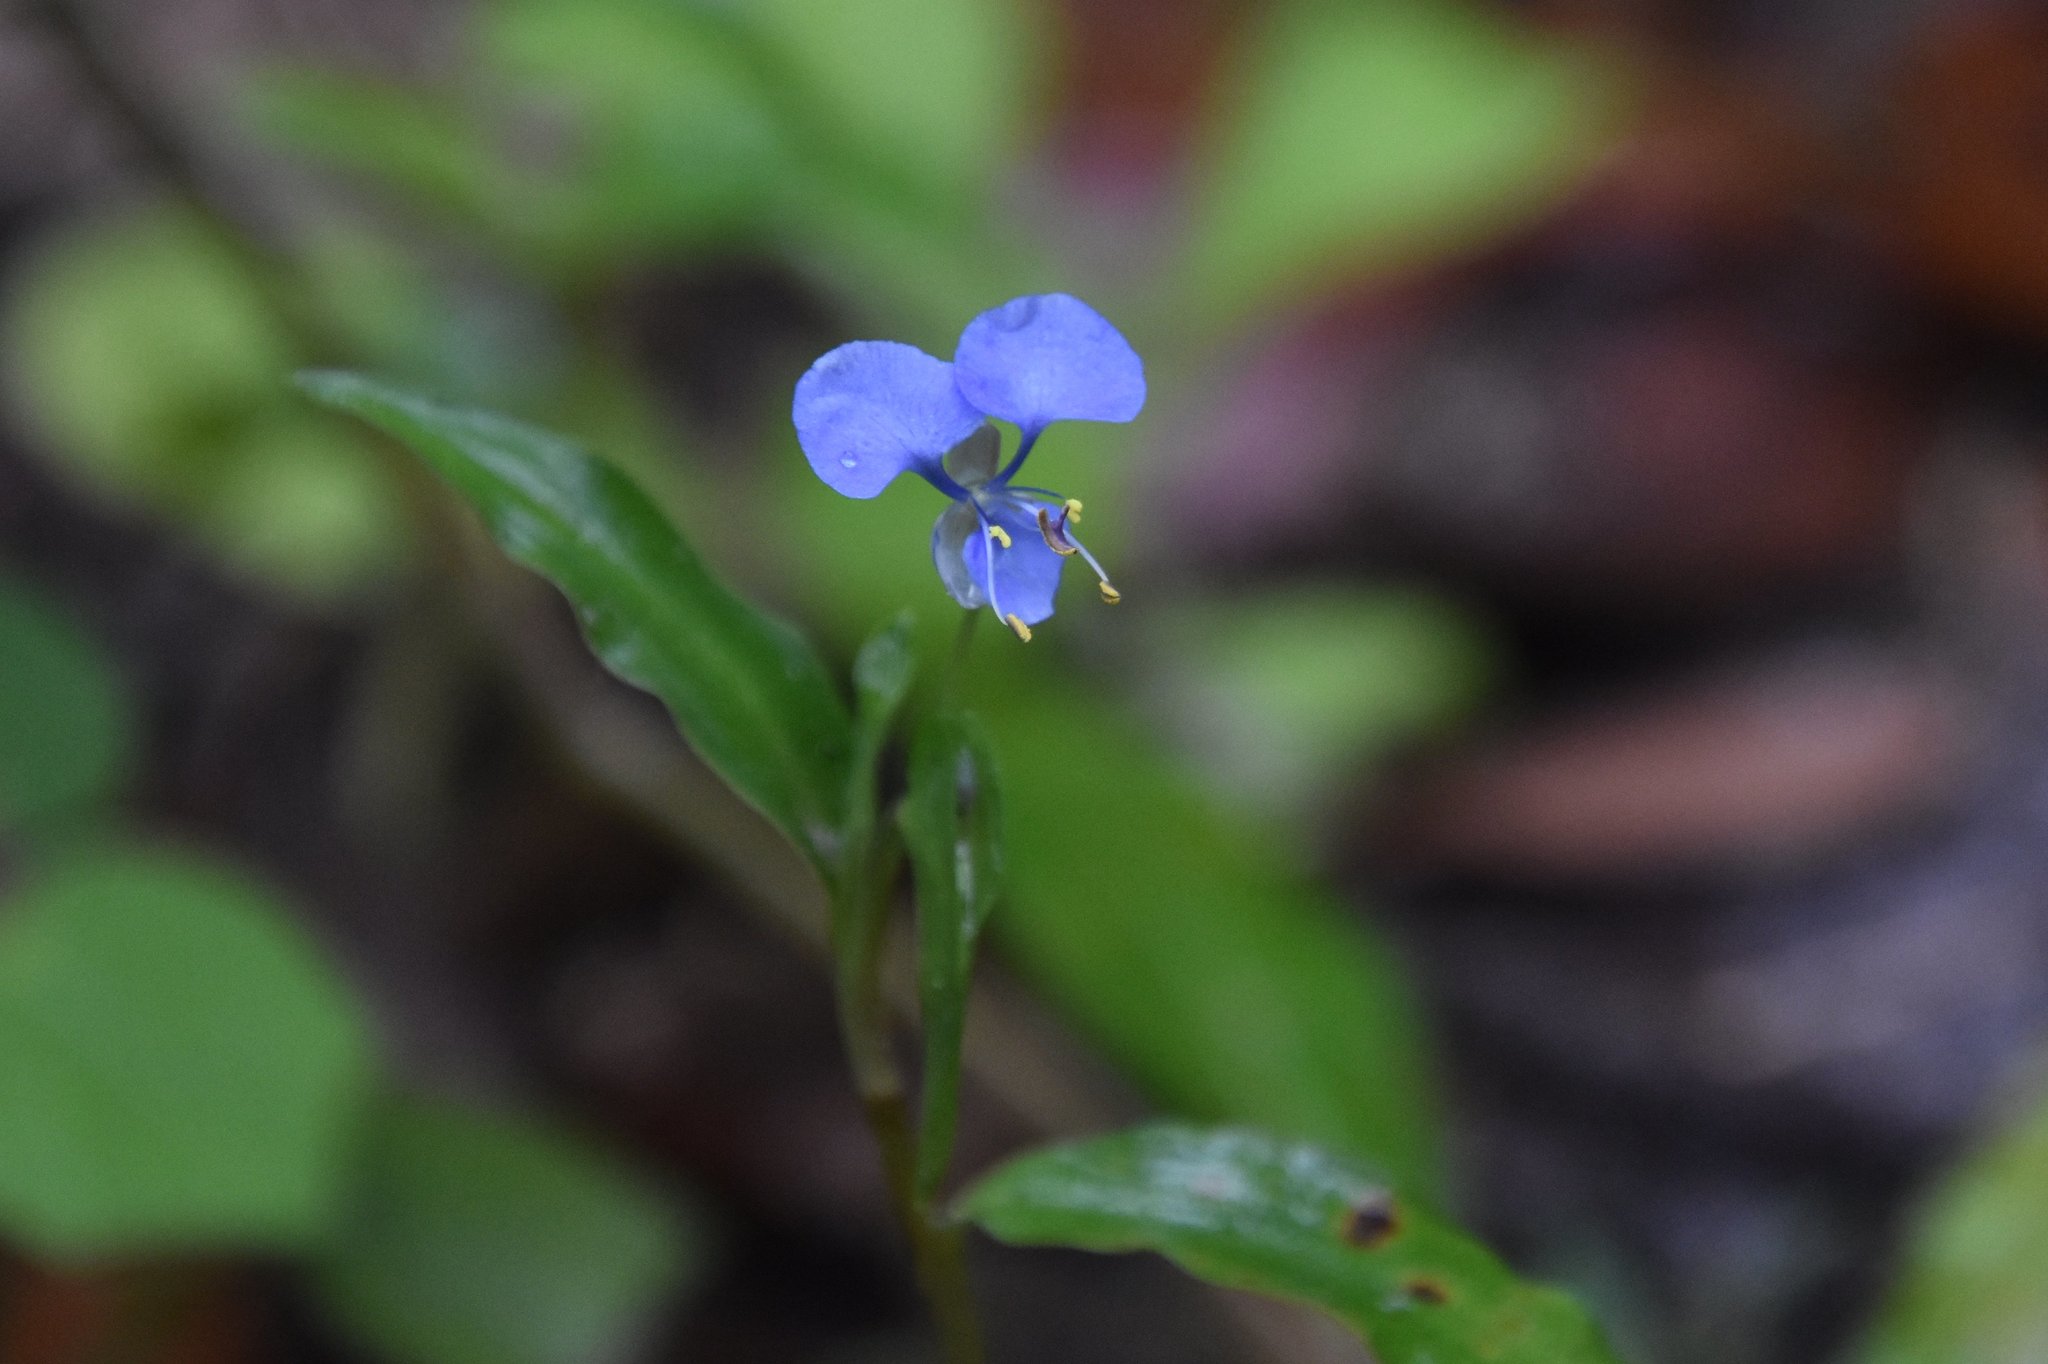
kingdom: Plantae
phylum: Tracheophyta
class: Liliopsida
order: Commelinales
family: Commelinaceae
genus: Commelina
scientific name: Commelina diffusa
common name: Climbing dayflower
